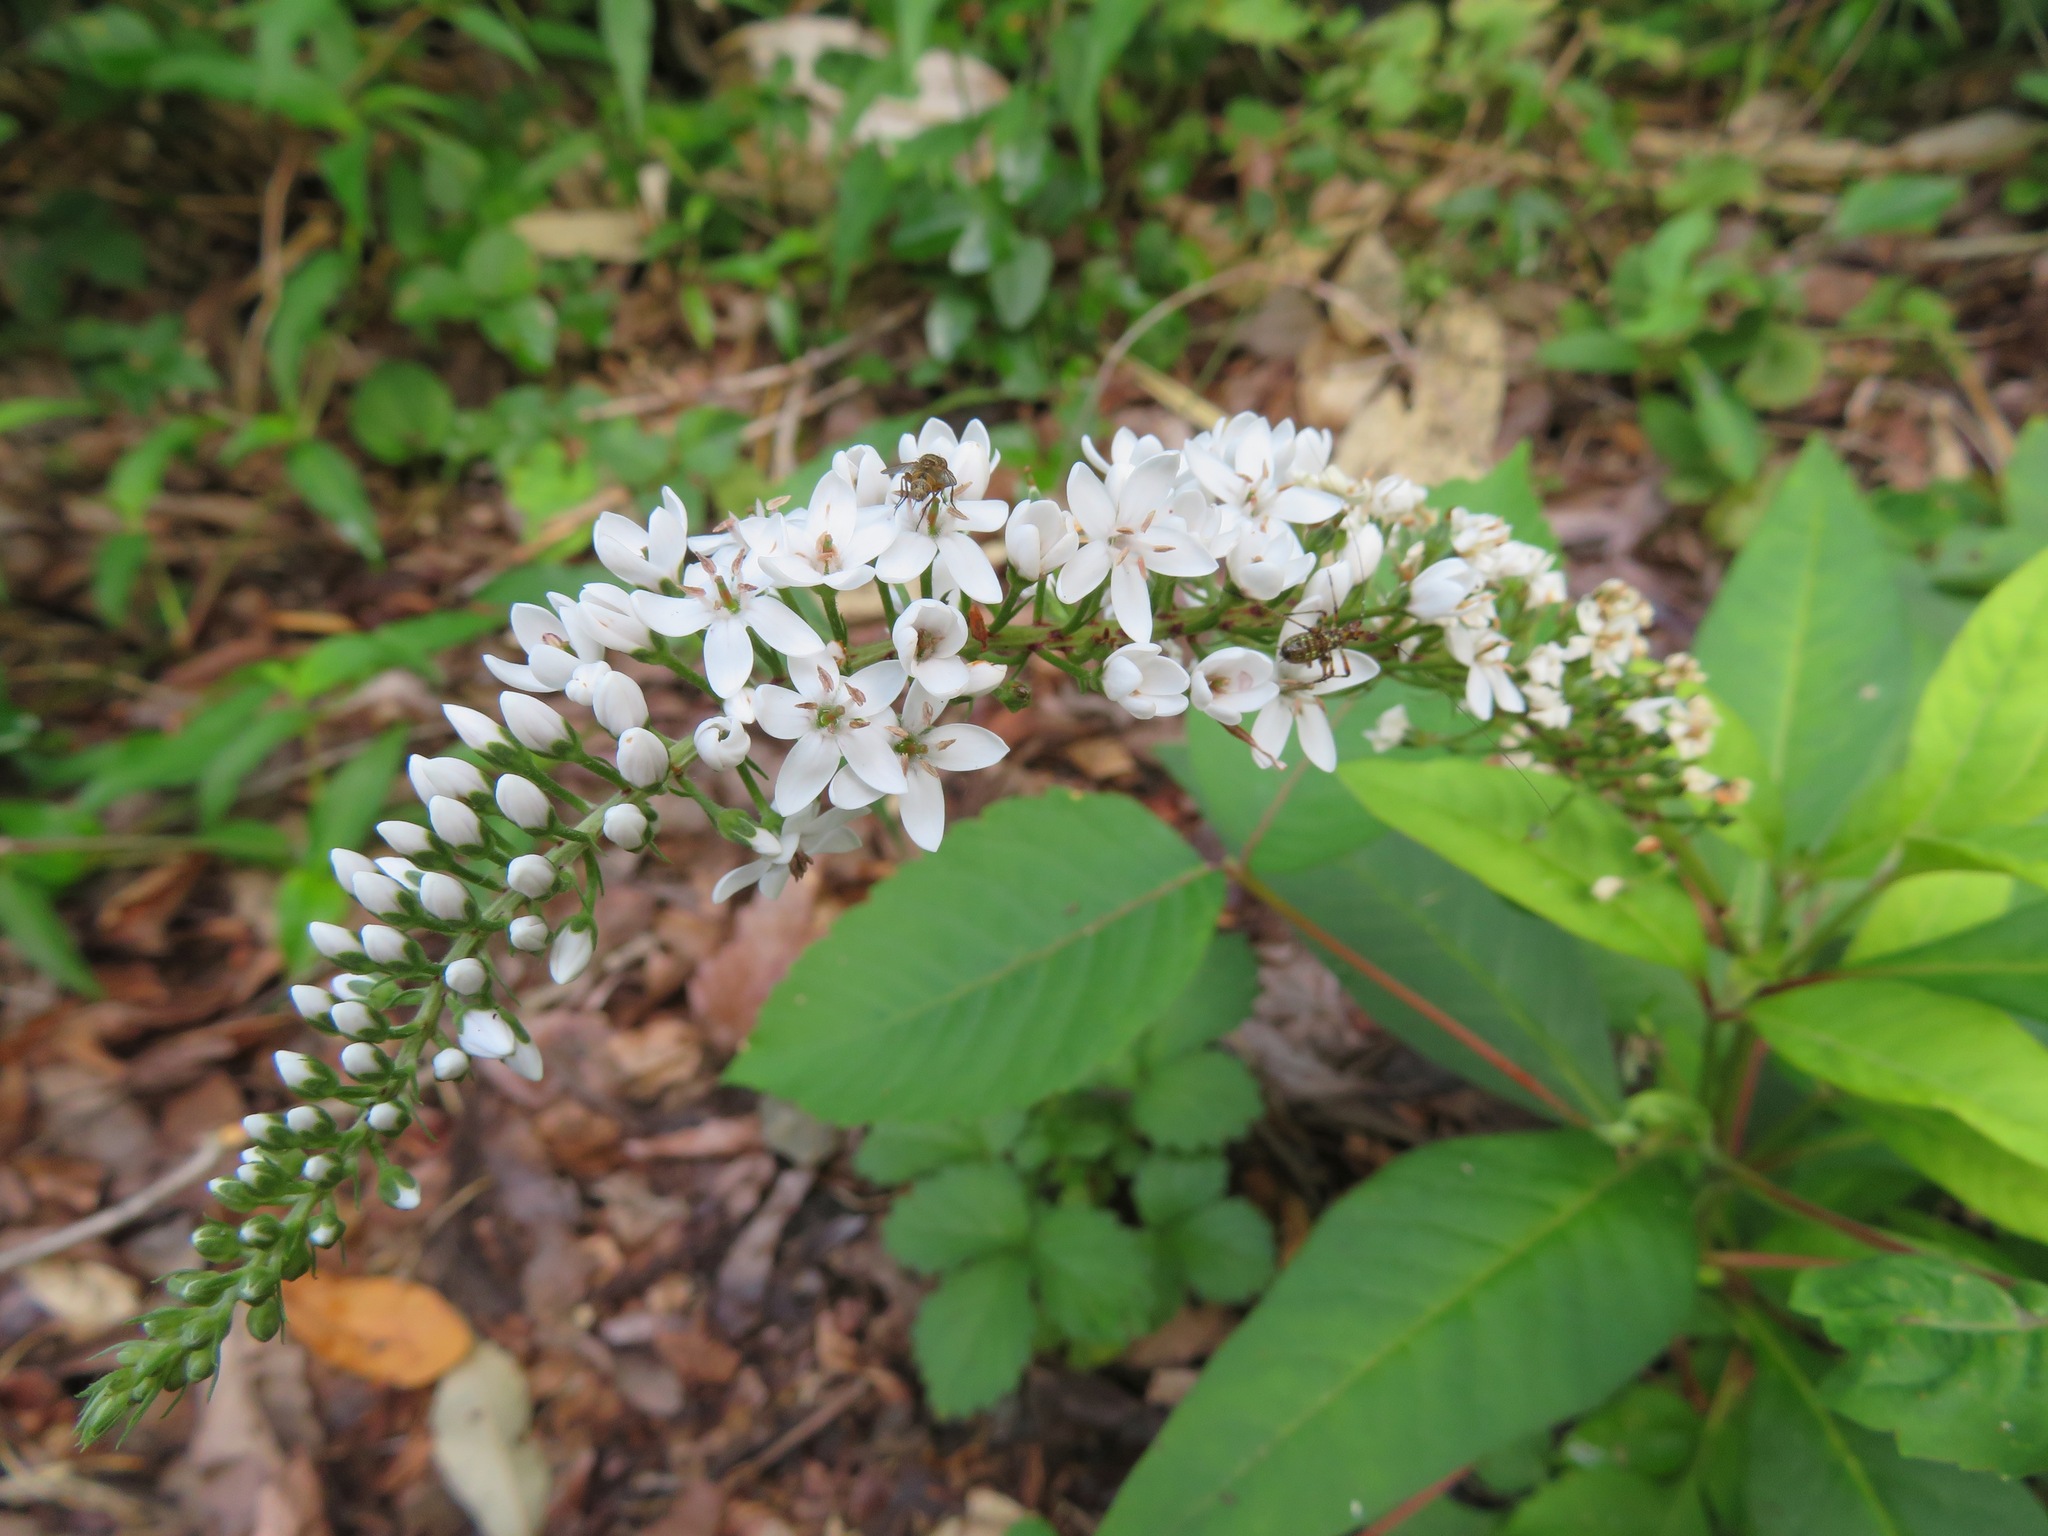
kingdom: Plantae
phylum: Tracheophyta
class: Magnoliopsida
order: Ericales
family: Primulaceae
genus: Lysimachia
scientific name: Lysimachia clethroides
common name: Gooseneck loosestrife
